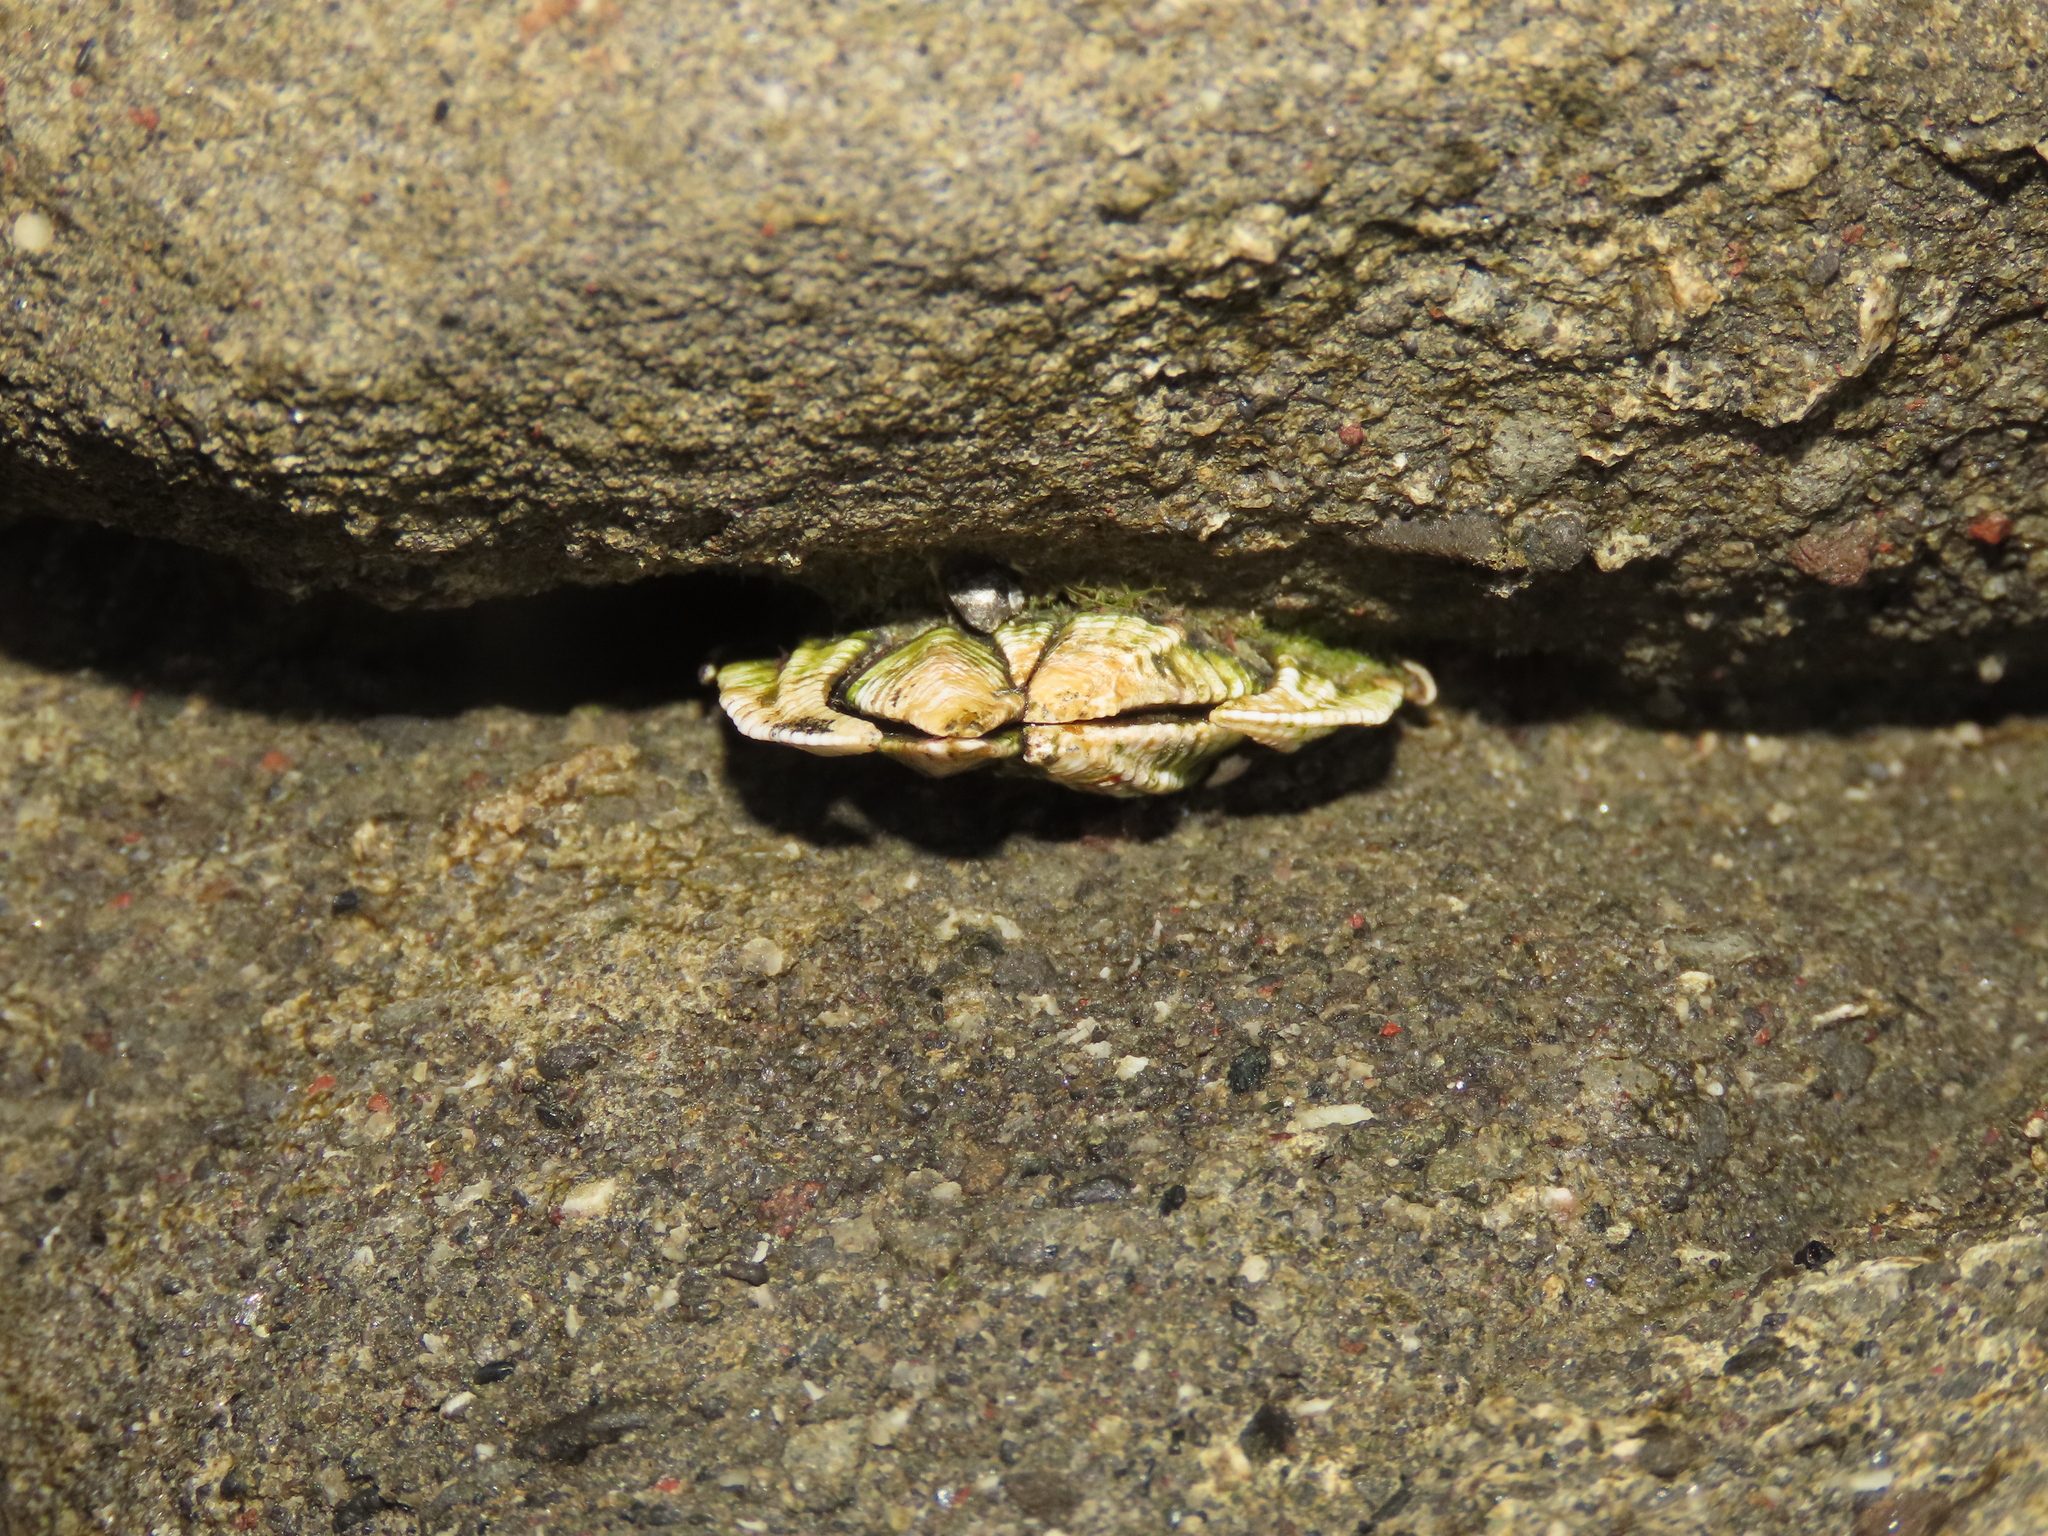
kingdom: Animalia
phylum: Arthropoda
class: Maxillopoda
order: Pedunculata
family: Pollicipedidae
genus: Capitulum
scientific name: Capitulum mitella
